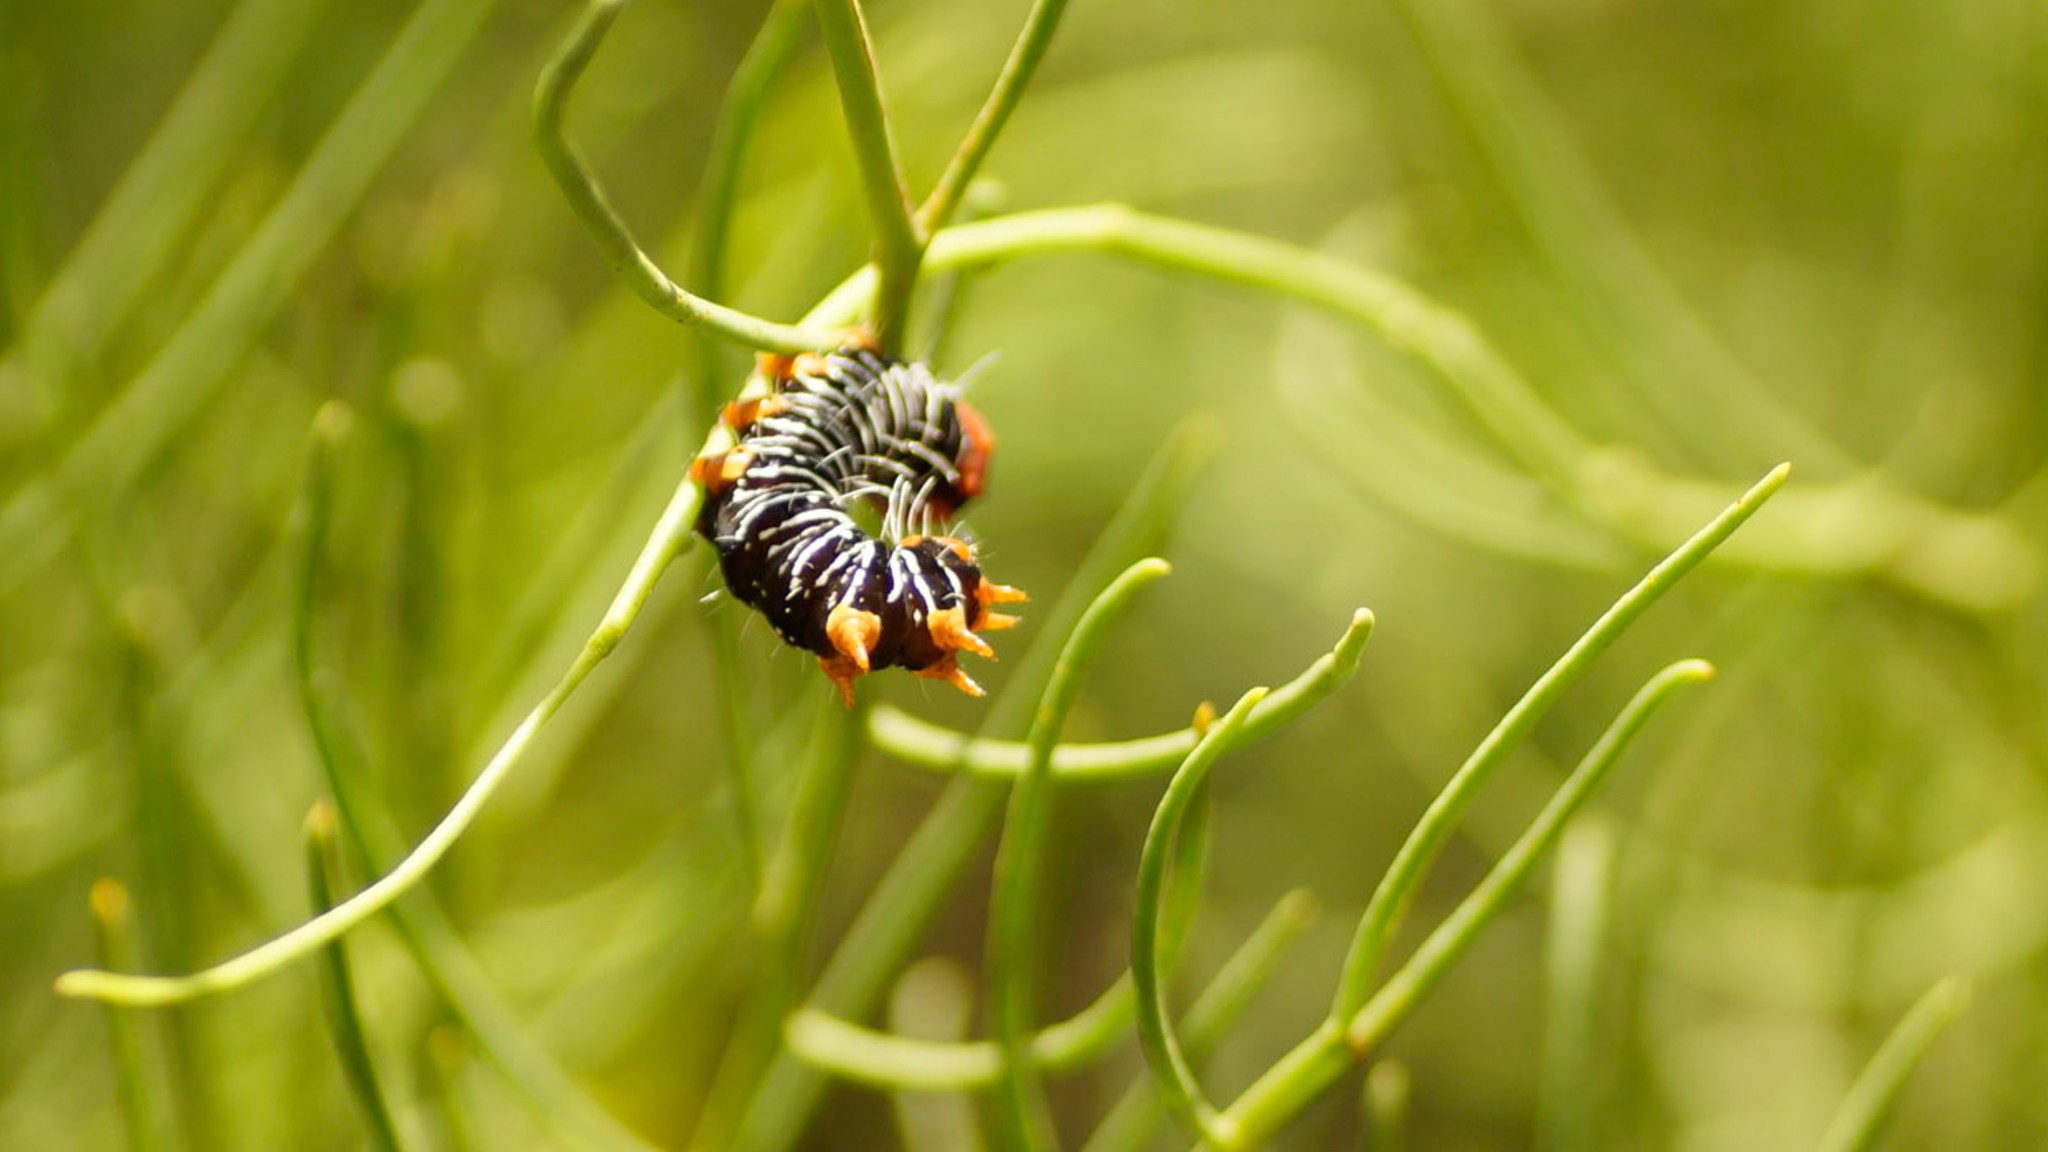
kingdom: Animalia
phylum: Arthropoda
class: Insecta
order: Lepidoptera
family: Noctuidae
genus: Comocrus
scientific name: Comocrus behri
